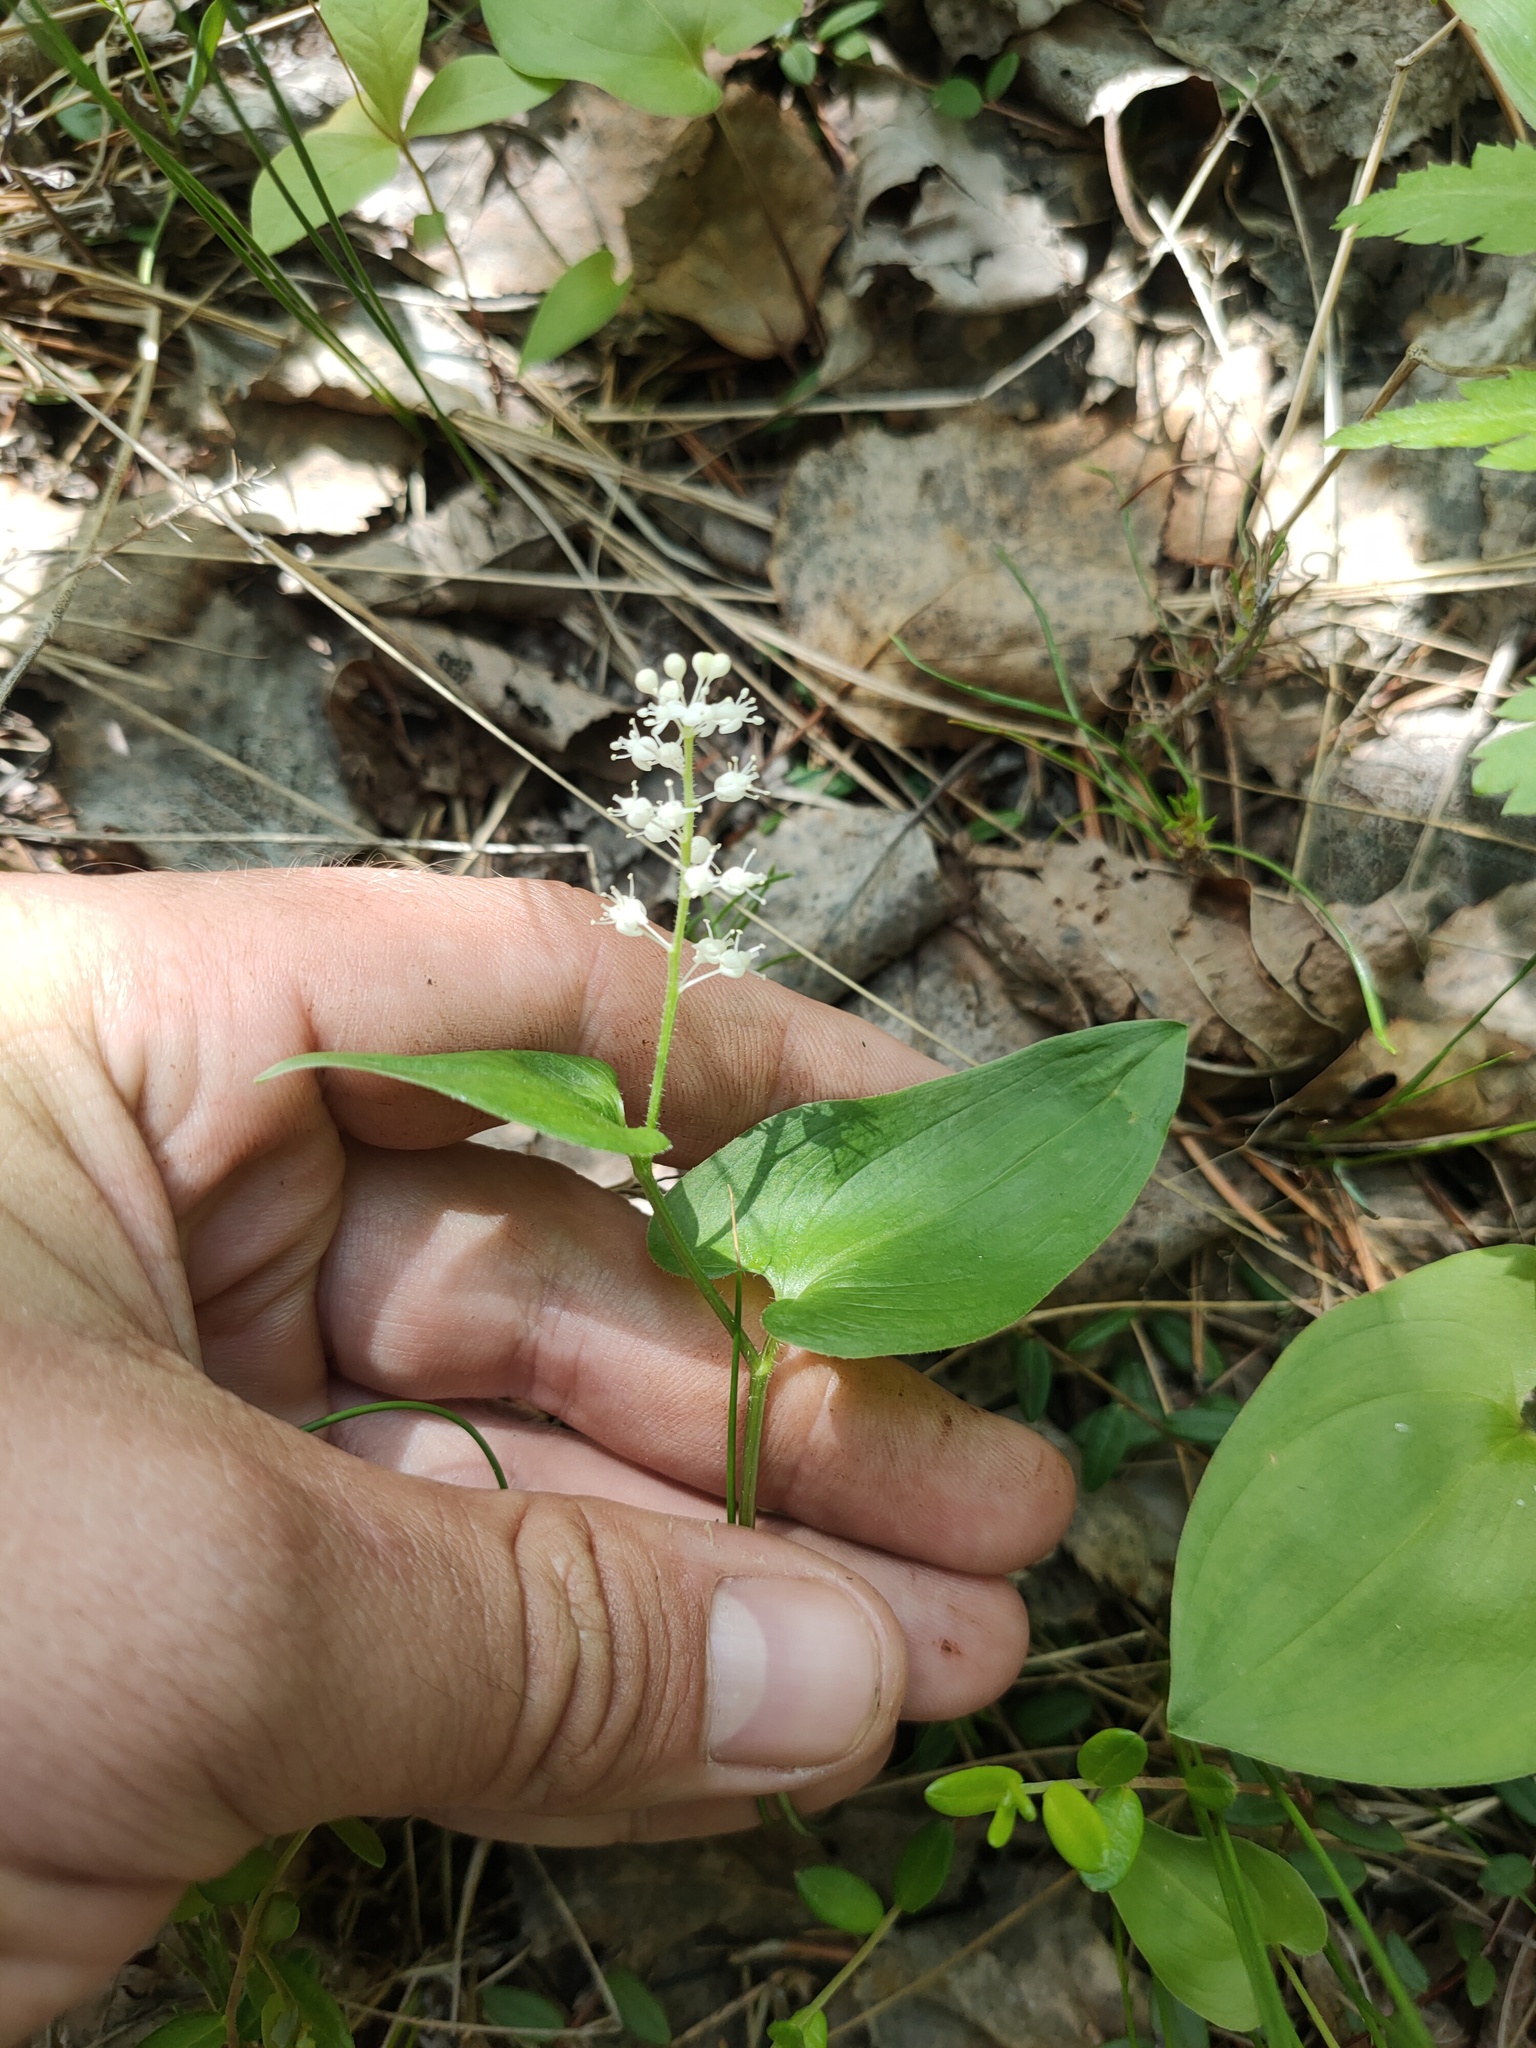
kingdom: Plantae
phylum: Tracheophyta
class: Liliopsida
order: Asparagales
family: Asparagaceae
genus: Maianthemum
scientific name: Maianthemum bifolium
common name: May lily
